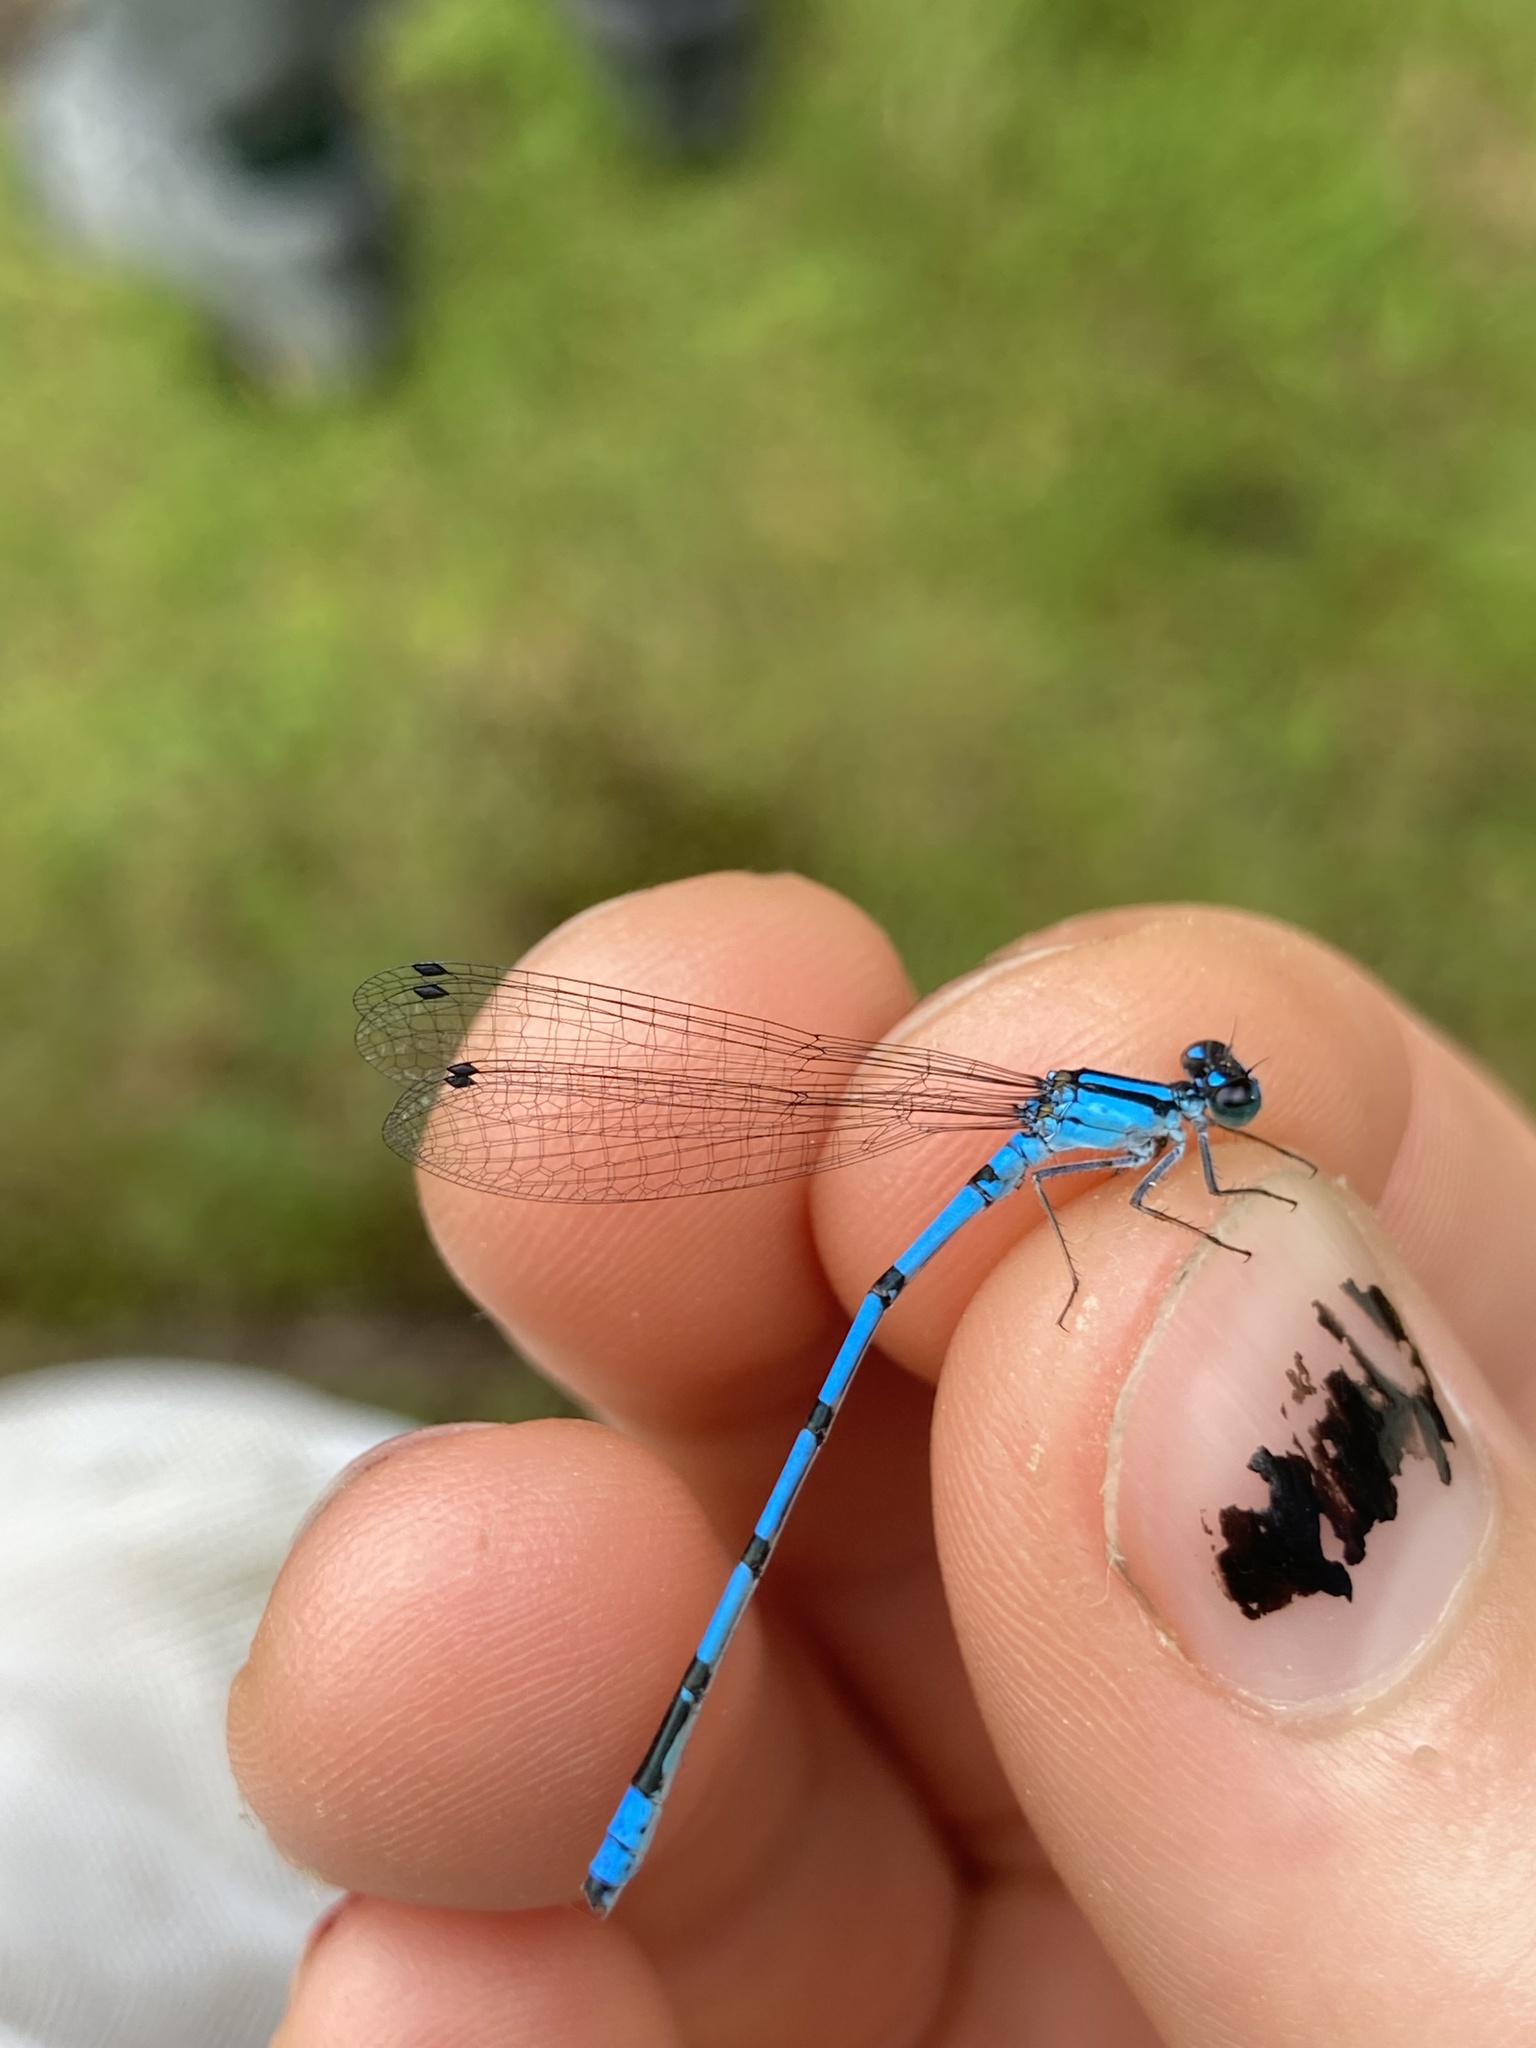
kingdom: Animalia
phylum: Arthropoda
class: Insecta
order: Odonata
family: Coenagrionidae
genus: Enallagma
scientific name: Enallagma hageni
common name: Hagen's bluet
